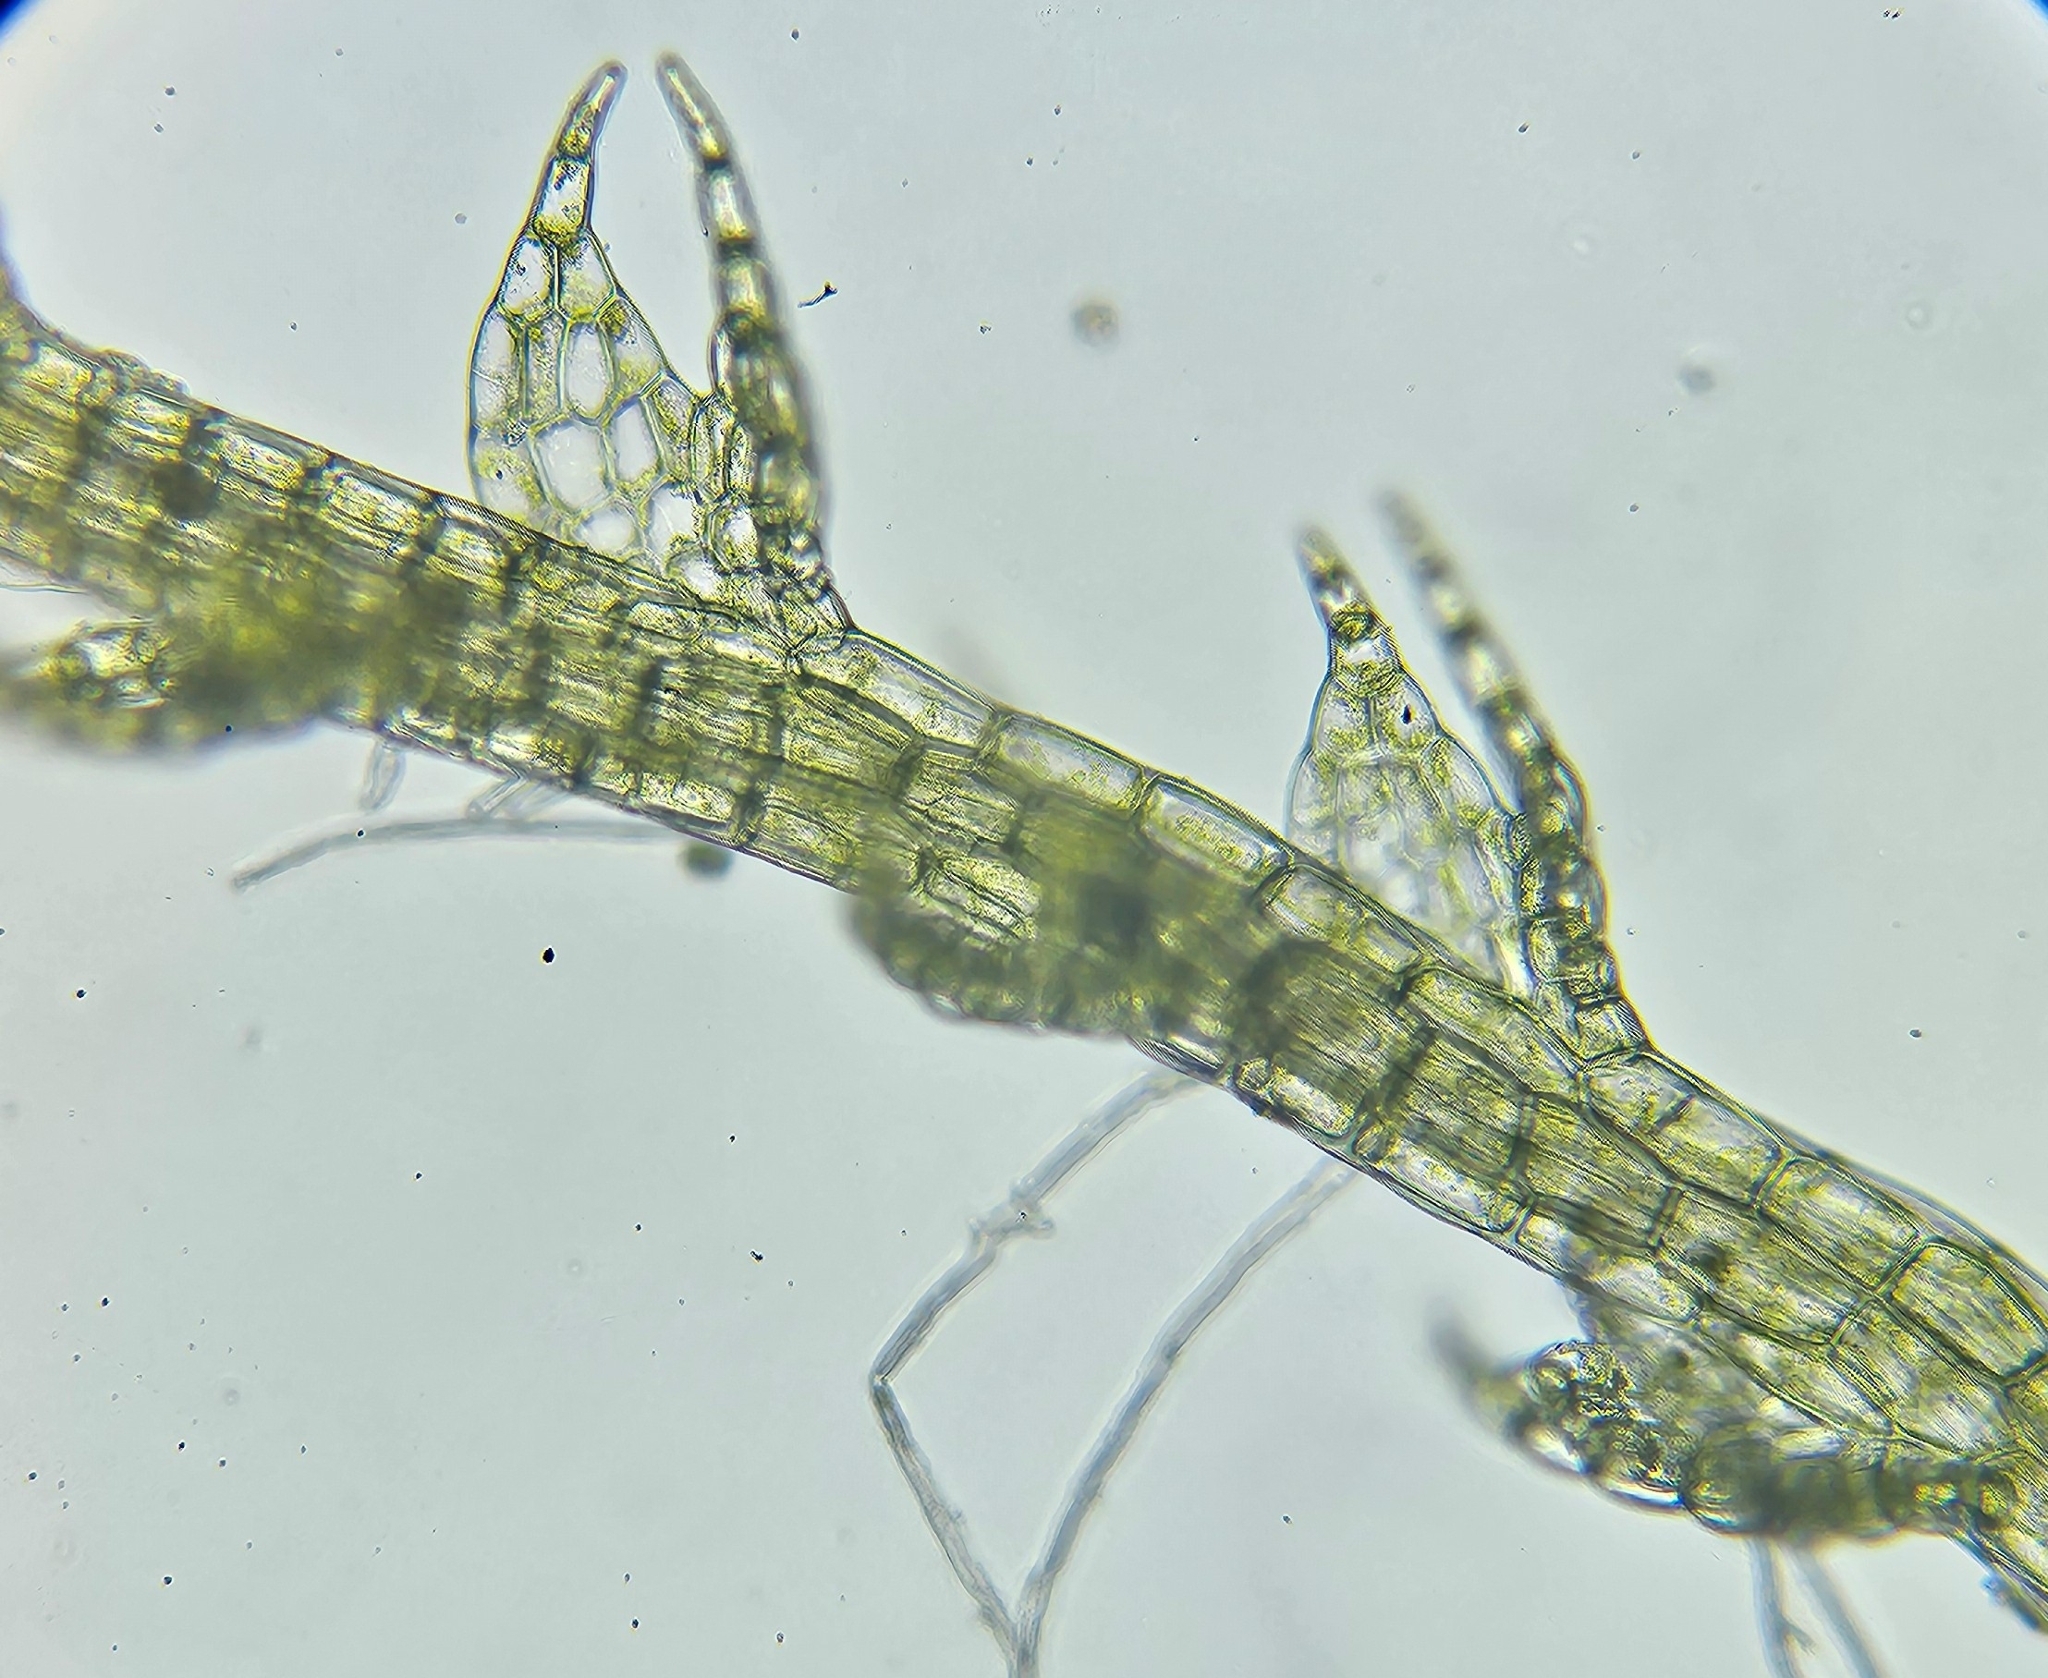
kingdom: Plantae
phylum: Marchantiophyta
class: Jungermanniopsida
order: Jungermanniales
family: Cephaloziaceae
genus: Cephalozia
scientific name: Cephalozia bicuspidata
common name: Two-horned pincerwort
